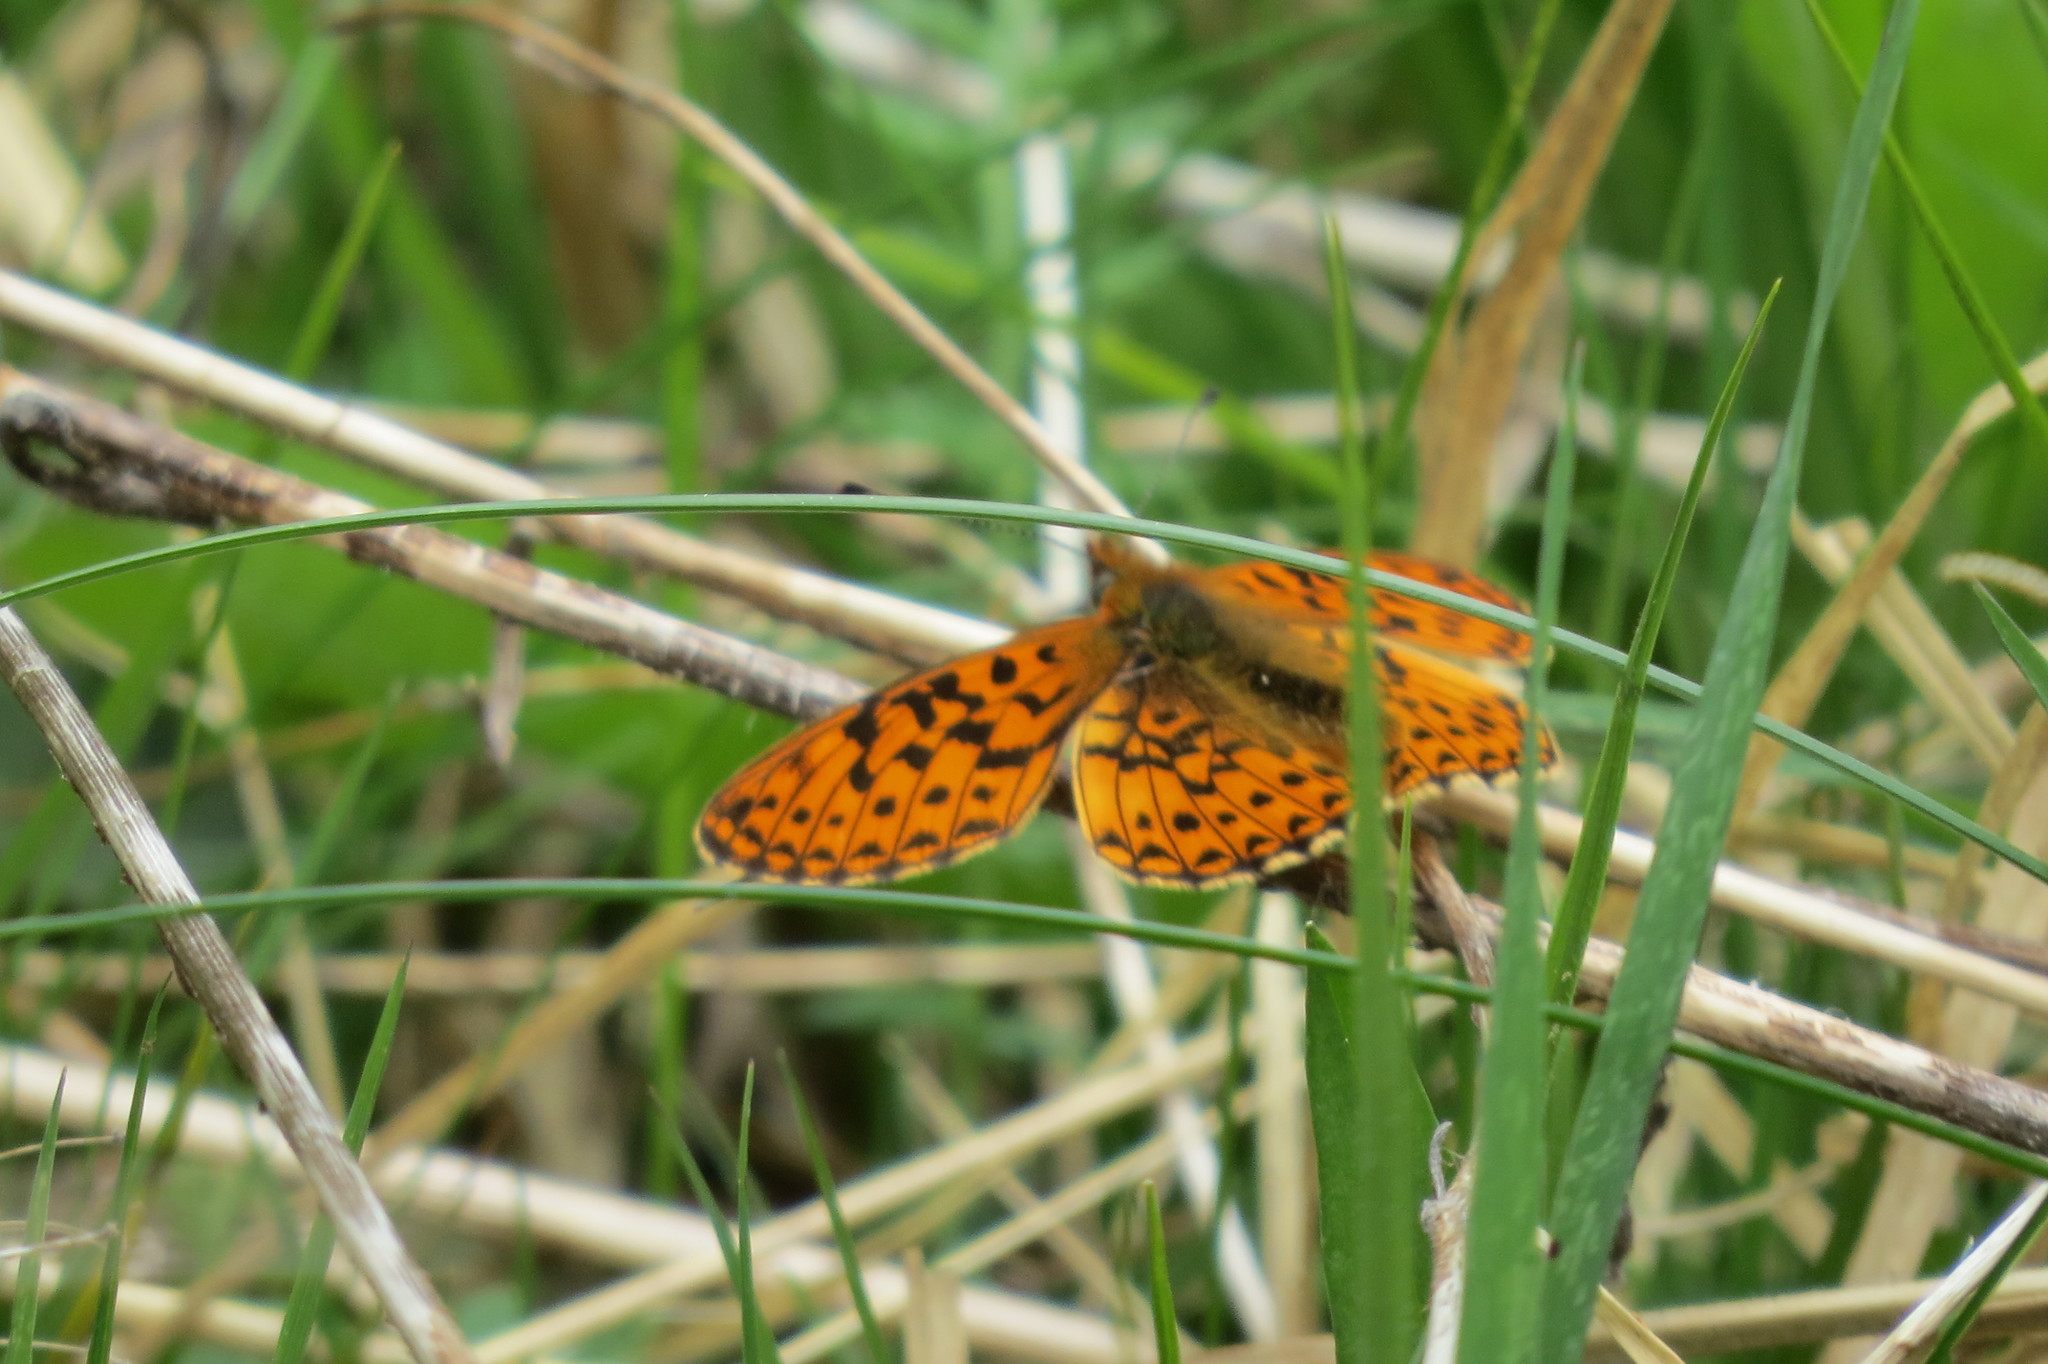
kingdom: Animalia
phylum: Arthropoda
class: Insecta
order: Lepidoptera
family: Nymphalidae
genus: Clossiana
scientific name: Clossiana euphrosyne
